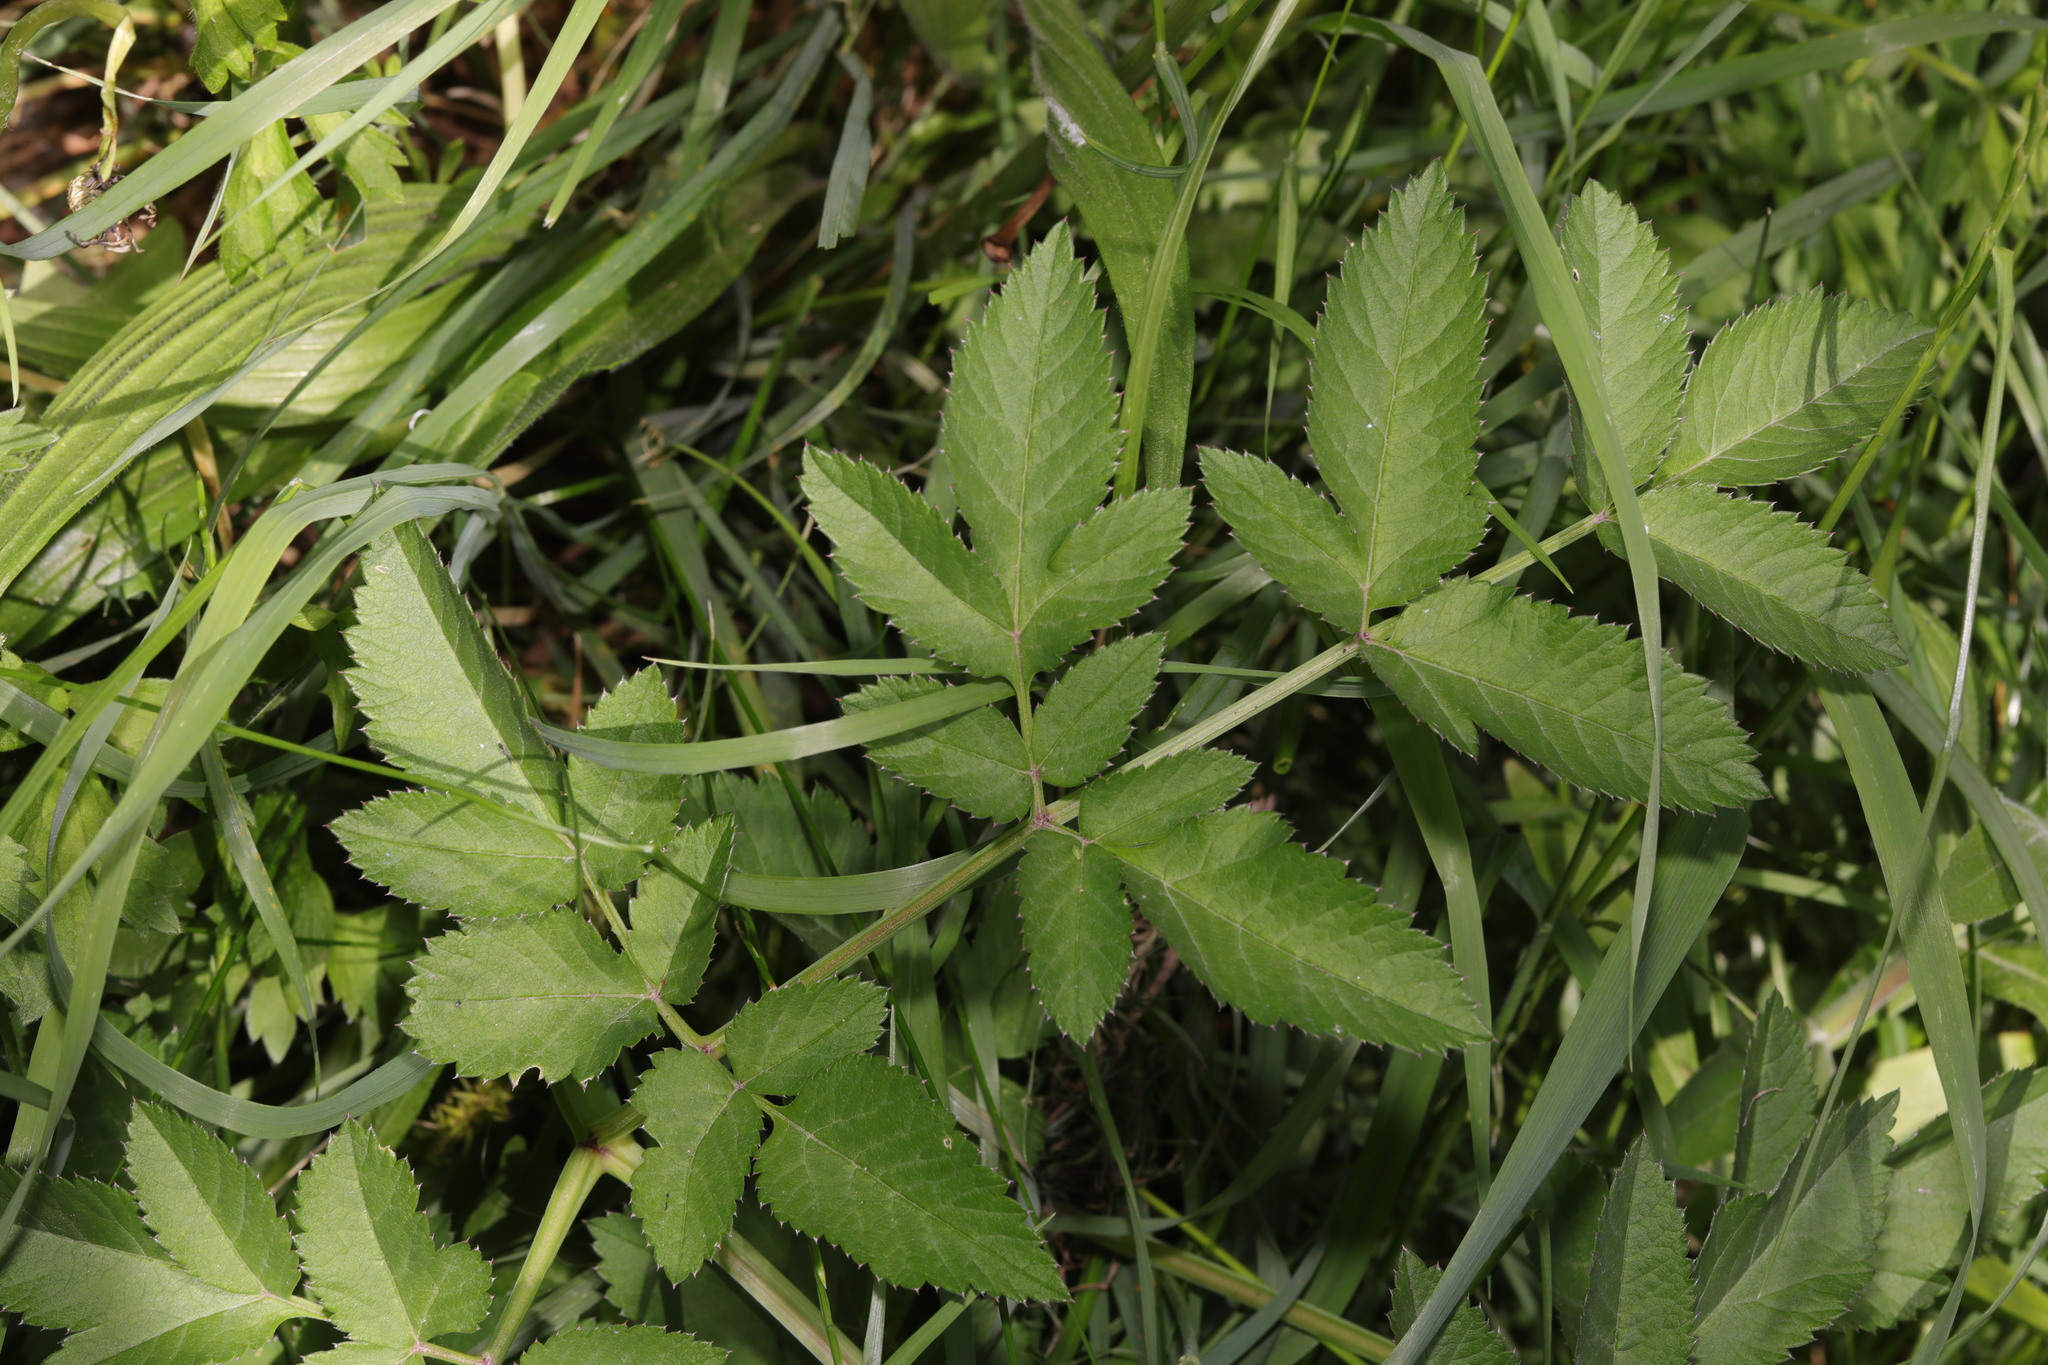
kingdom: Plantae
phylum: Tracheophyta
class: Magnoliopsida
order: Apiales
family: Apiaceae
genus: Angelica
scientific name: Angelica sylvestris
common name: Wild angelica
